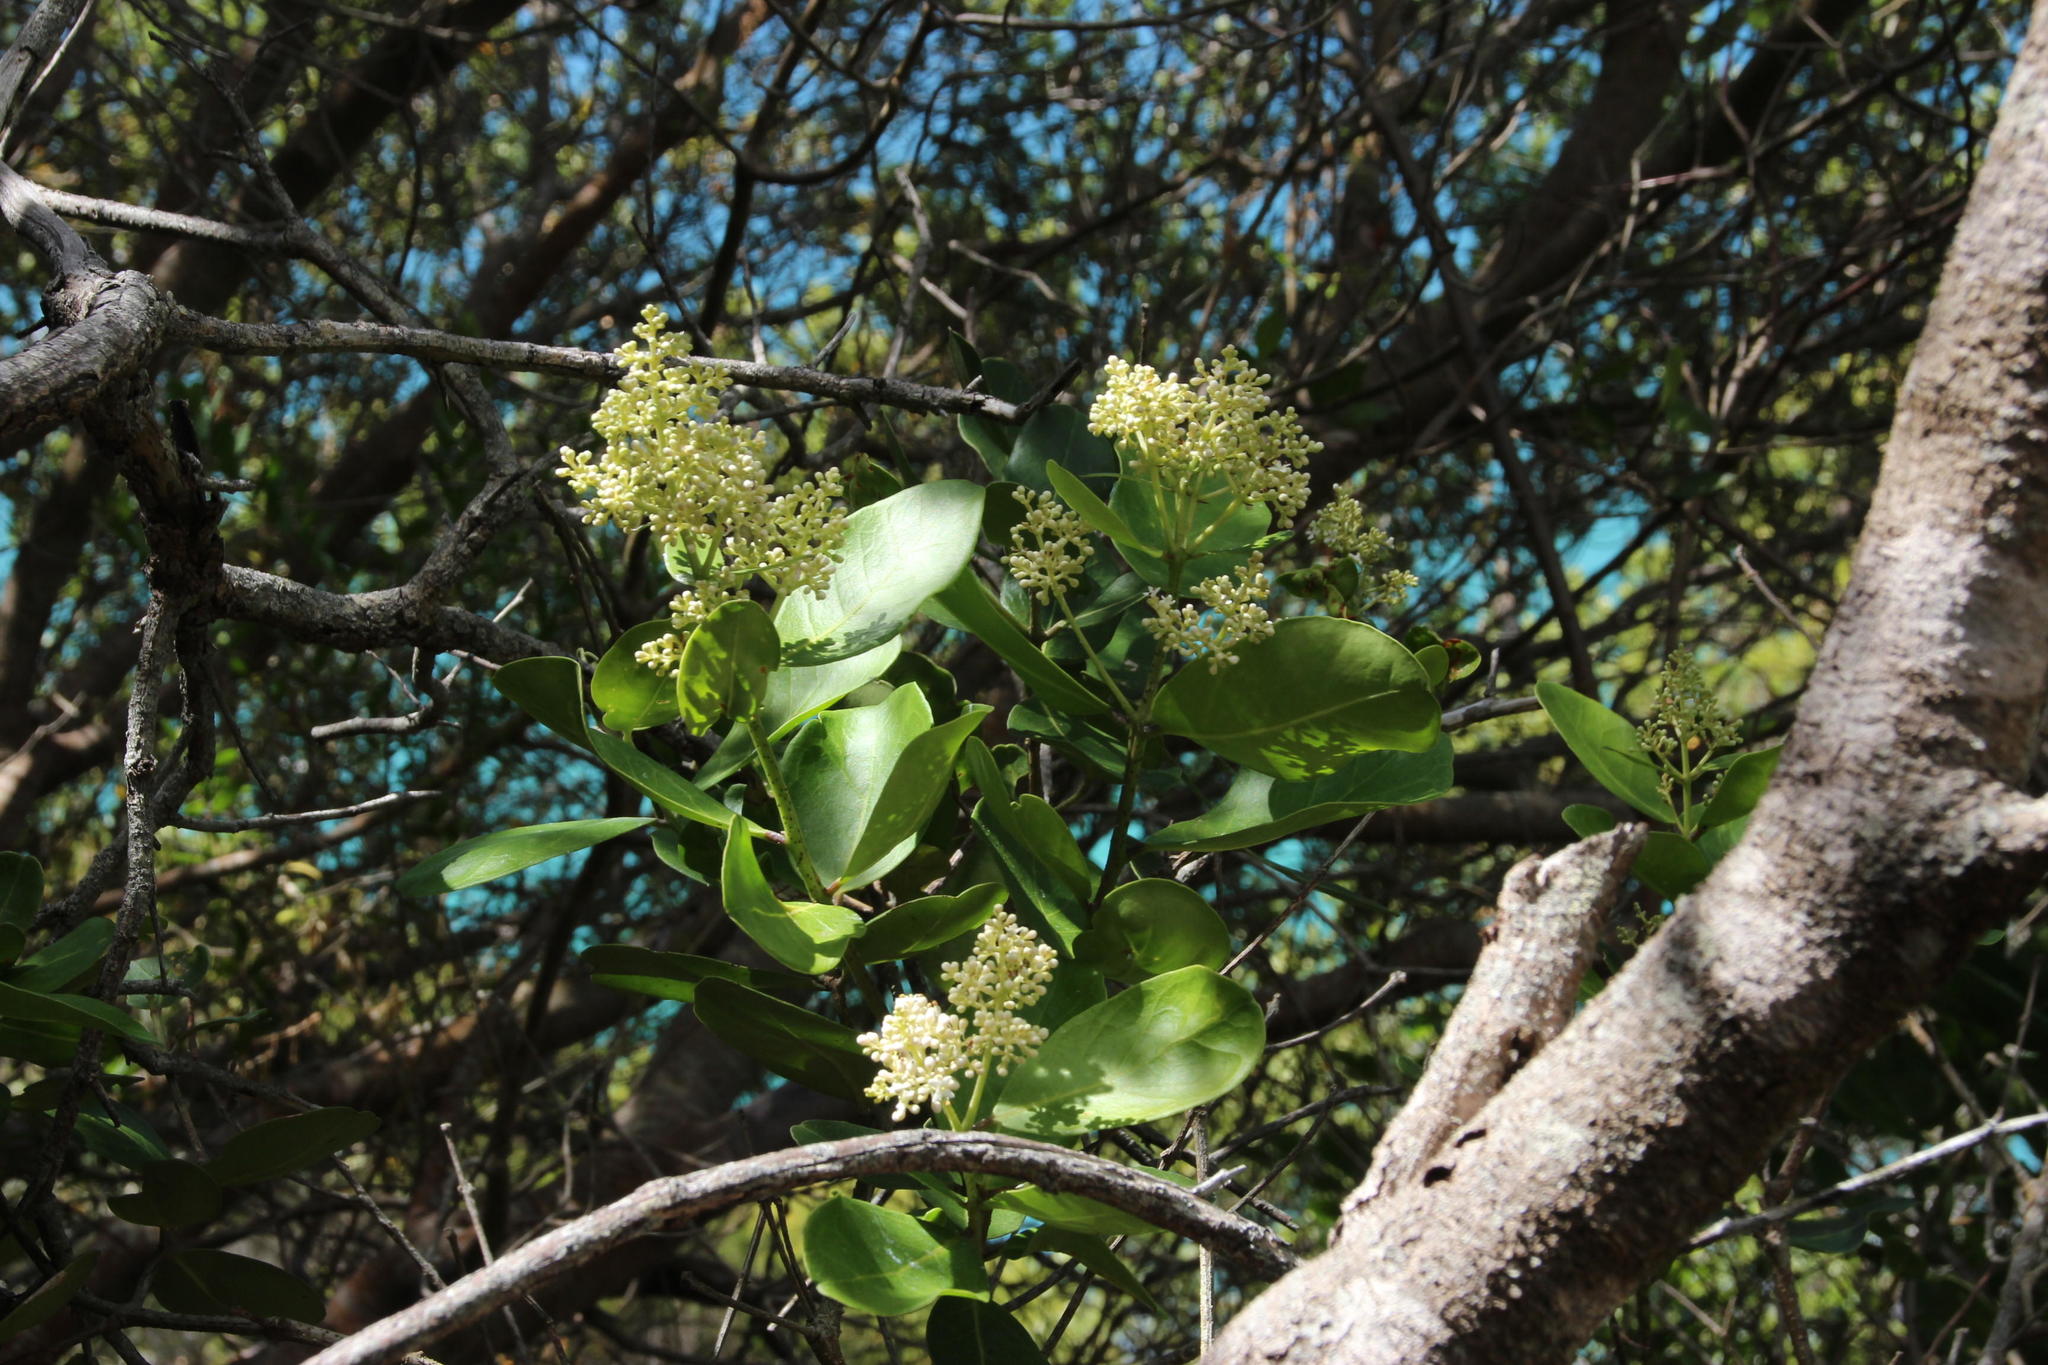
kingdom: Plantae
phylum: Tracheophyta
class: Magnoliopsida
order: Lamiales
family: Oleaceae
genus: Olea
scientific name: Olea capensis
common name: Black ironwood
